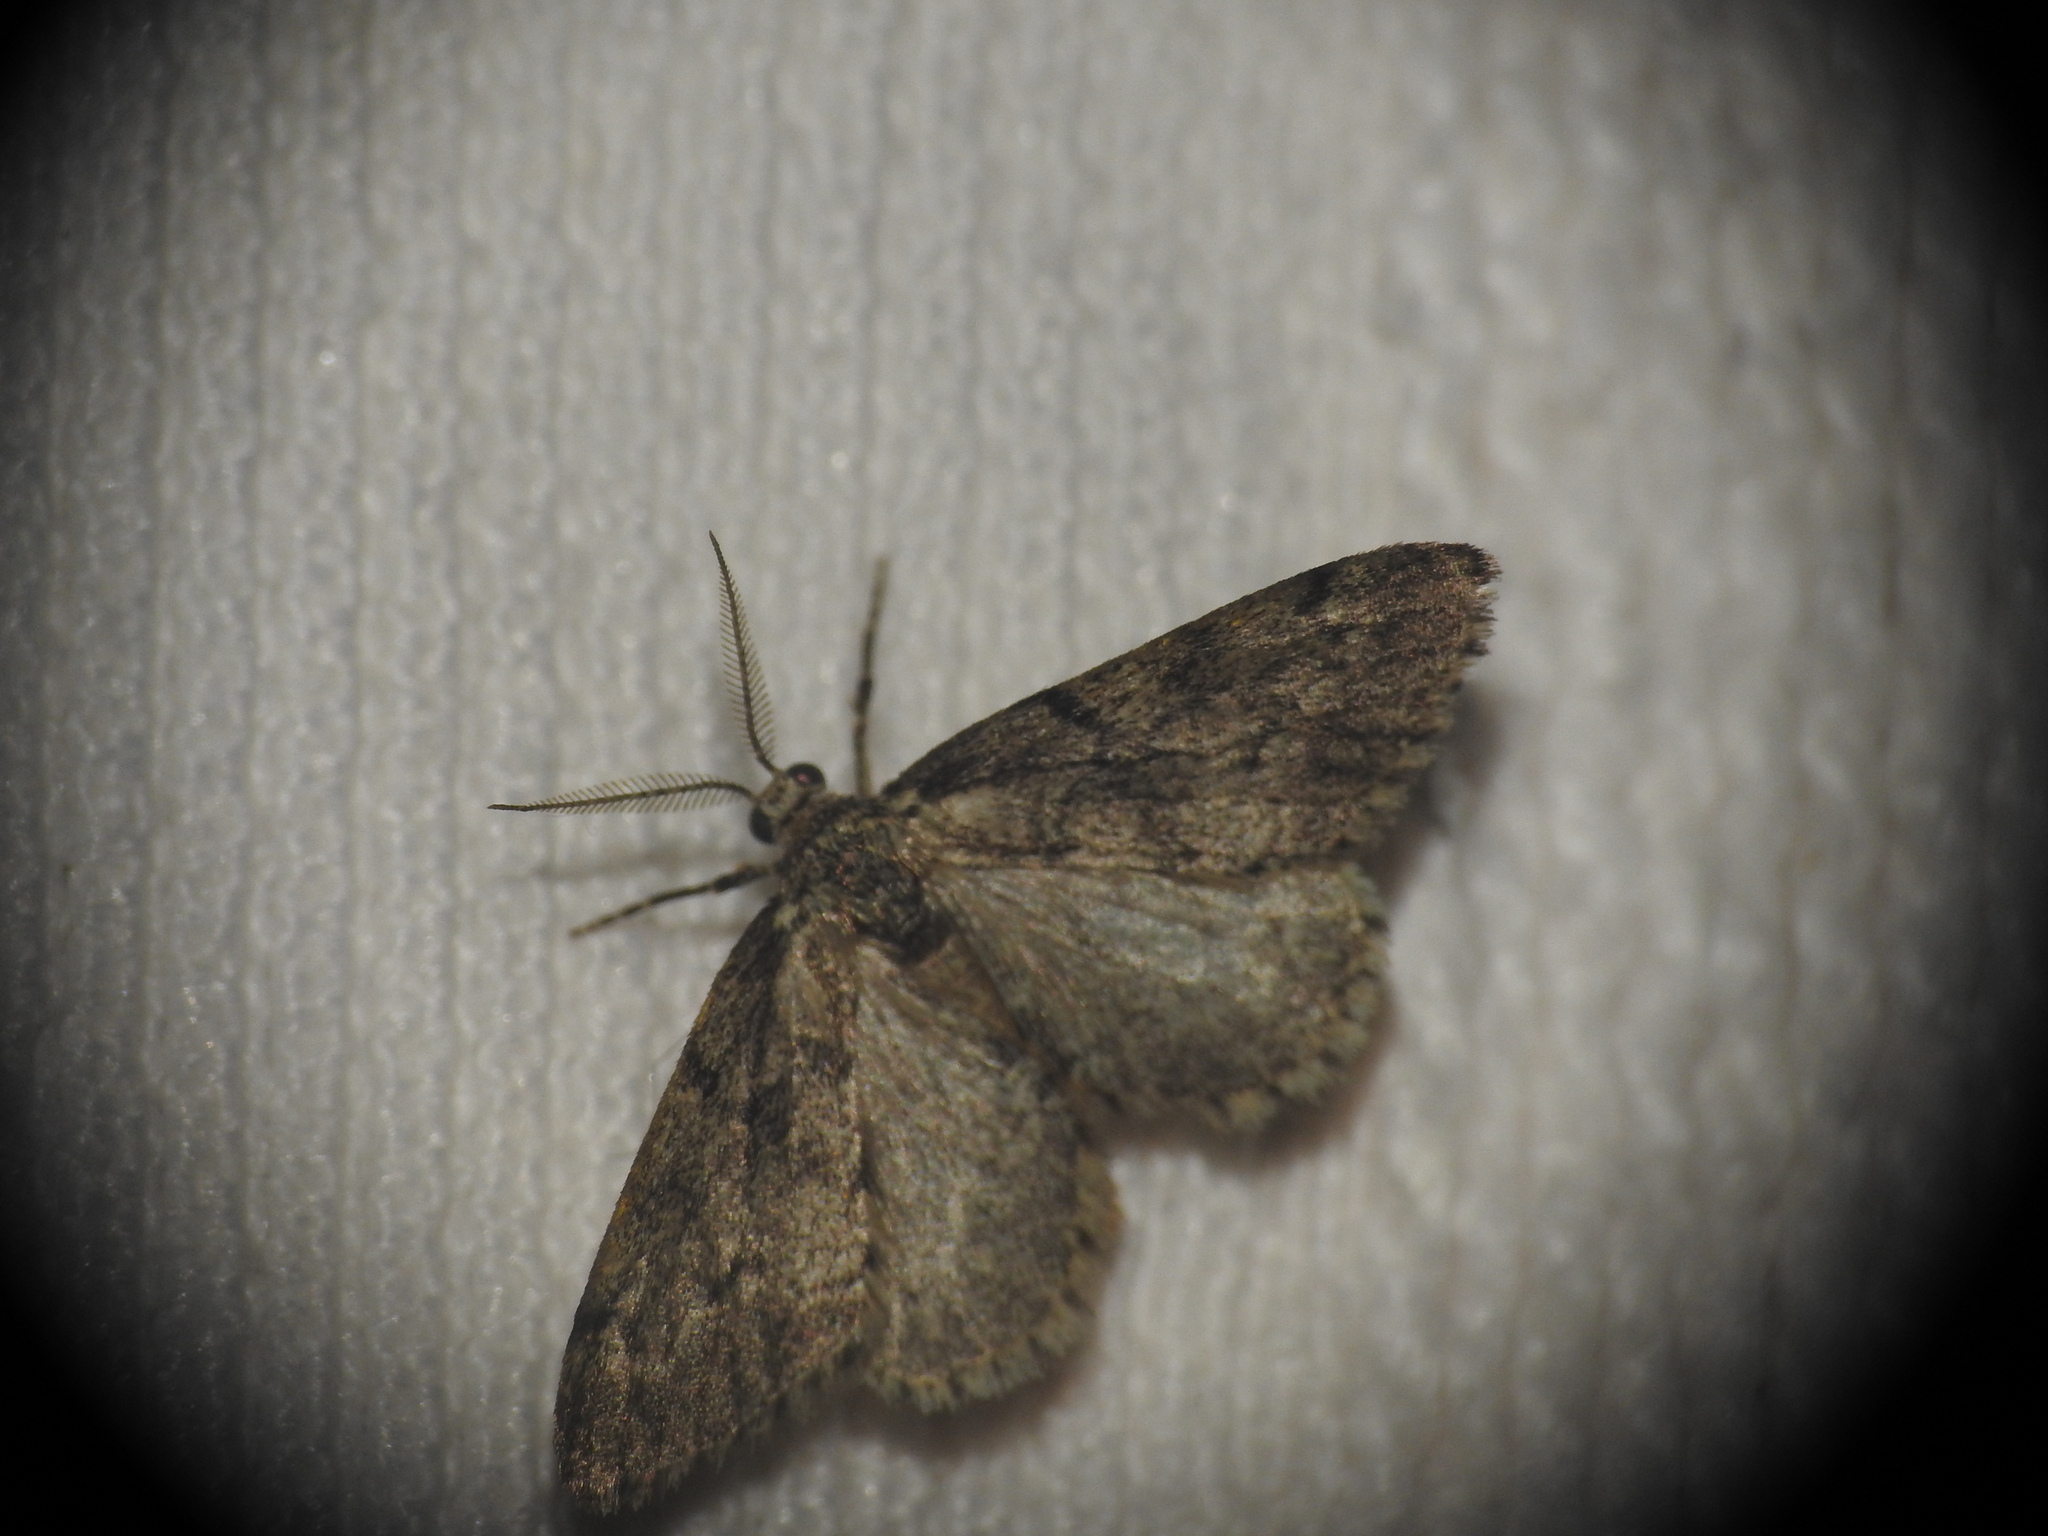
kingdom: Animalia
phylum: Arthropoda
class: Insecta
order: Lepidoptera
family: Geometridae
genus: Tephronia
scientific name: Tephronia sepiaria
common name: Dusky carpet
